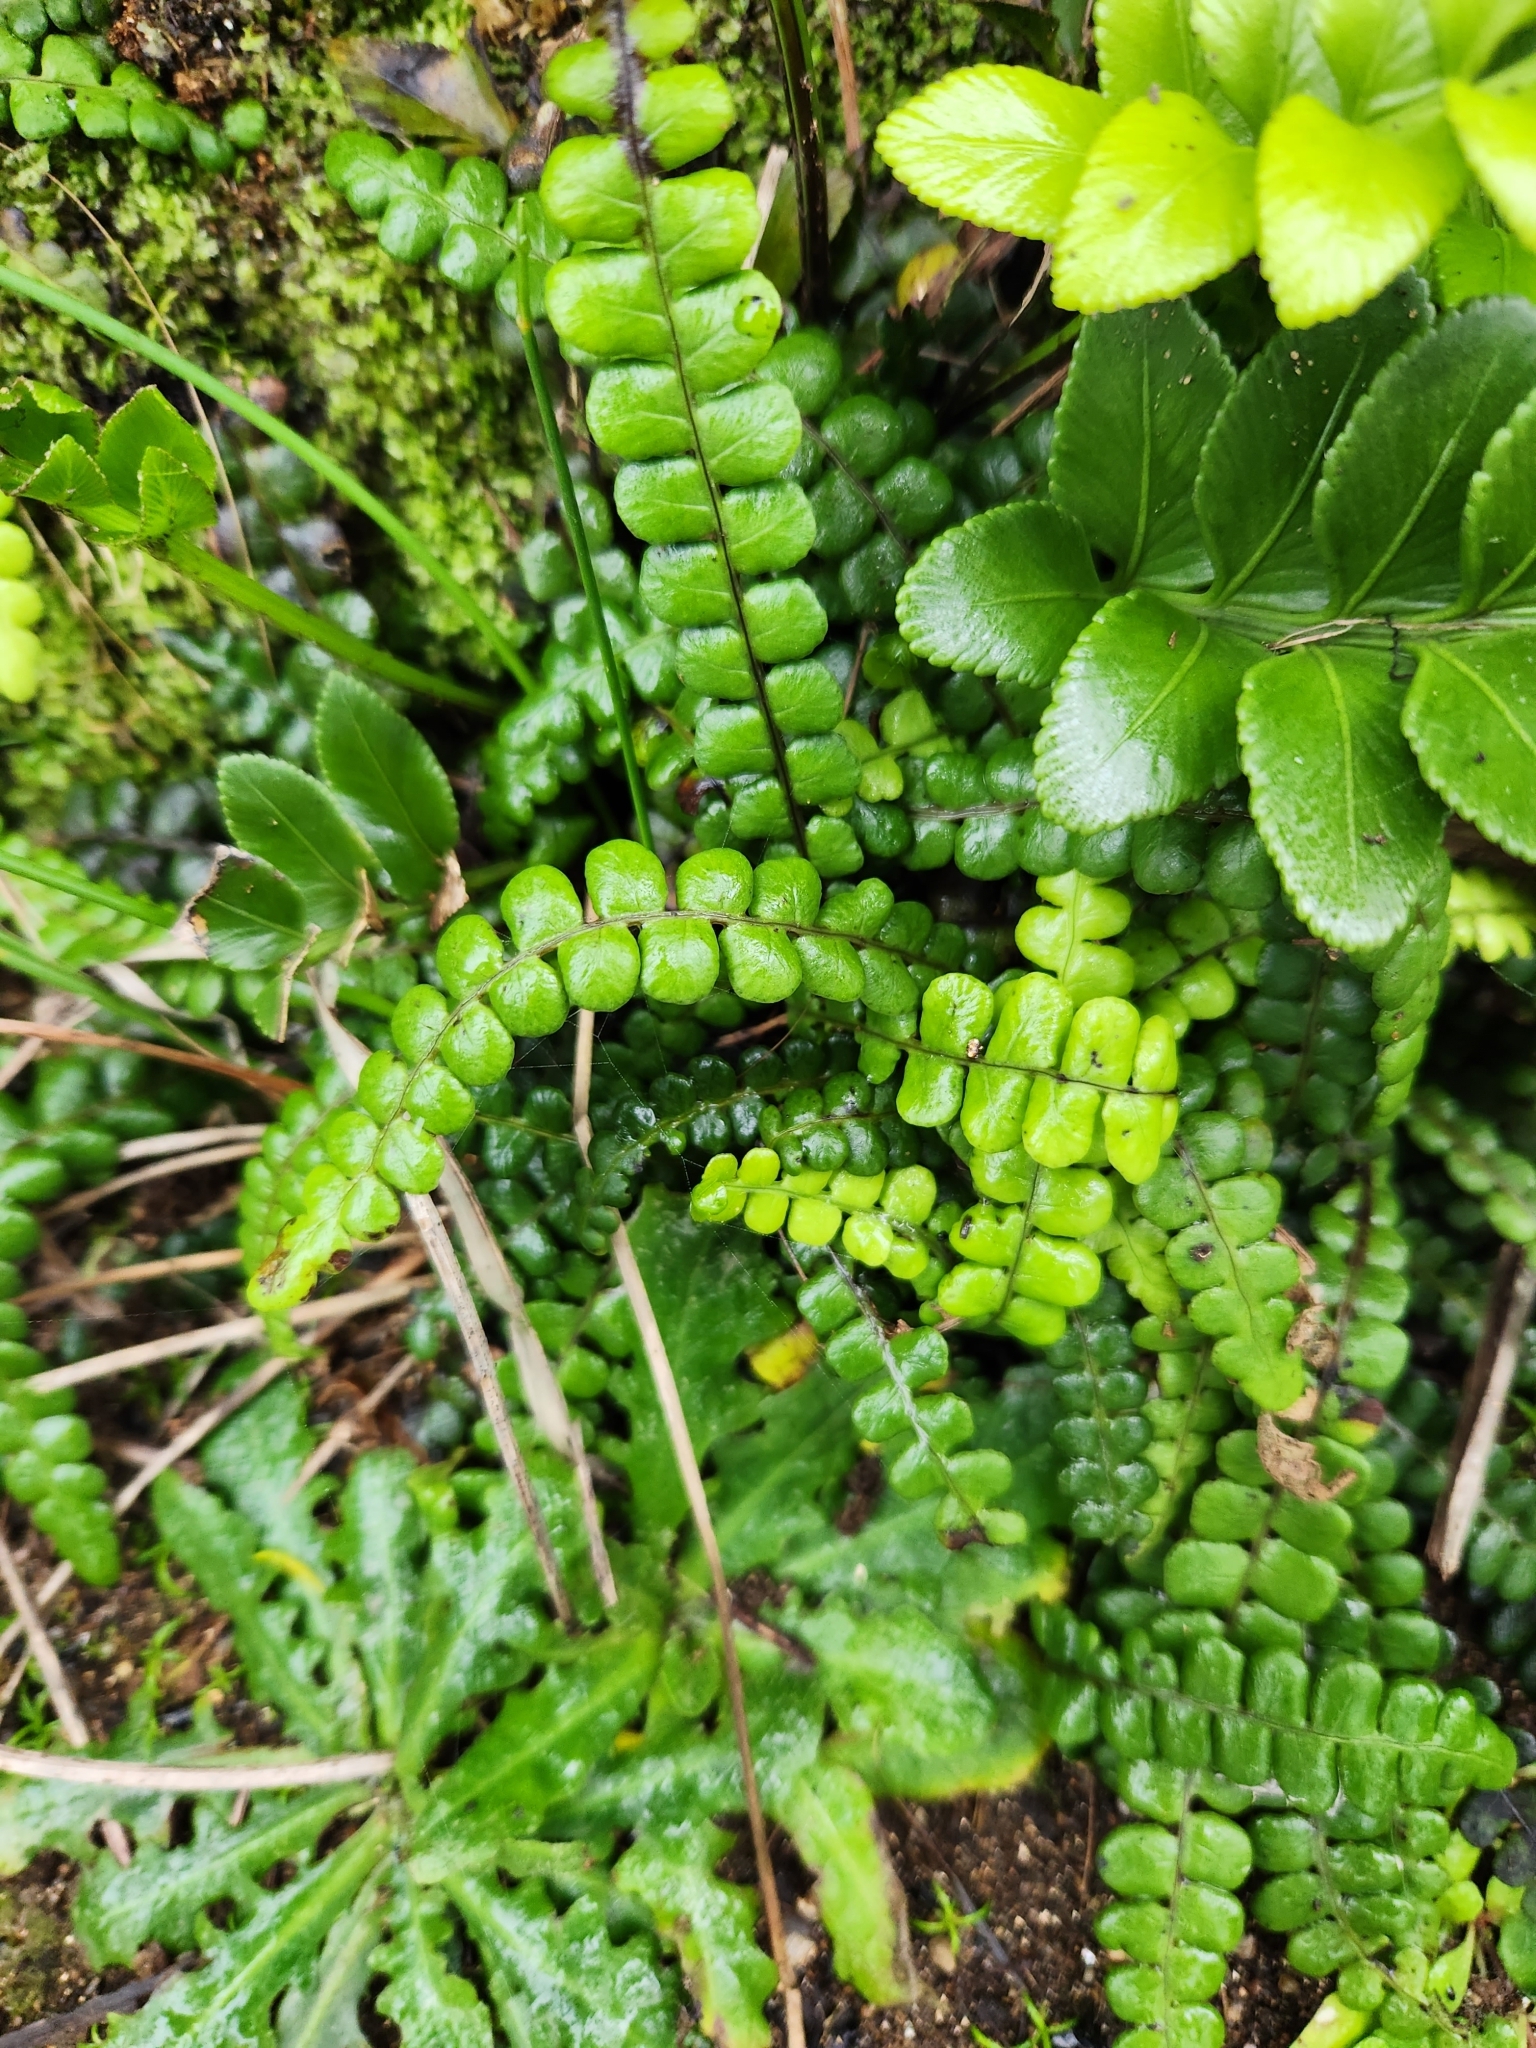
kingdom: Plantae
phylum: Tracheophyta
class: Polypodiopsida
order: Polypodiales
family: Blechnaceae
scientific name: Blechnaceae
